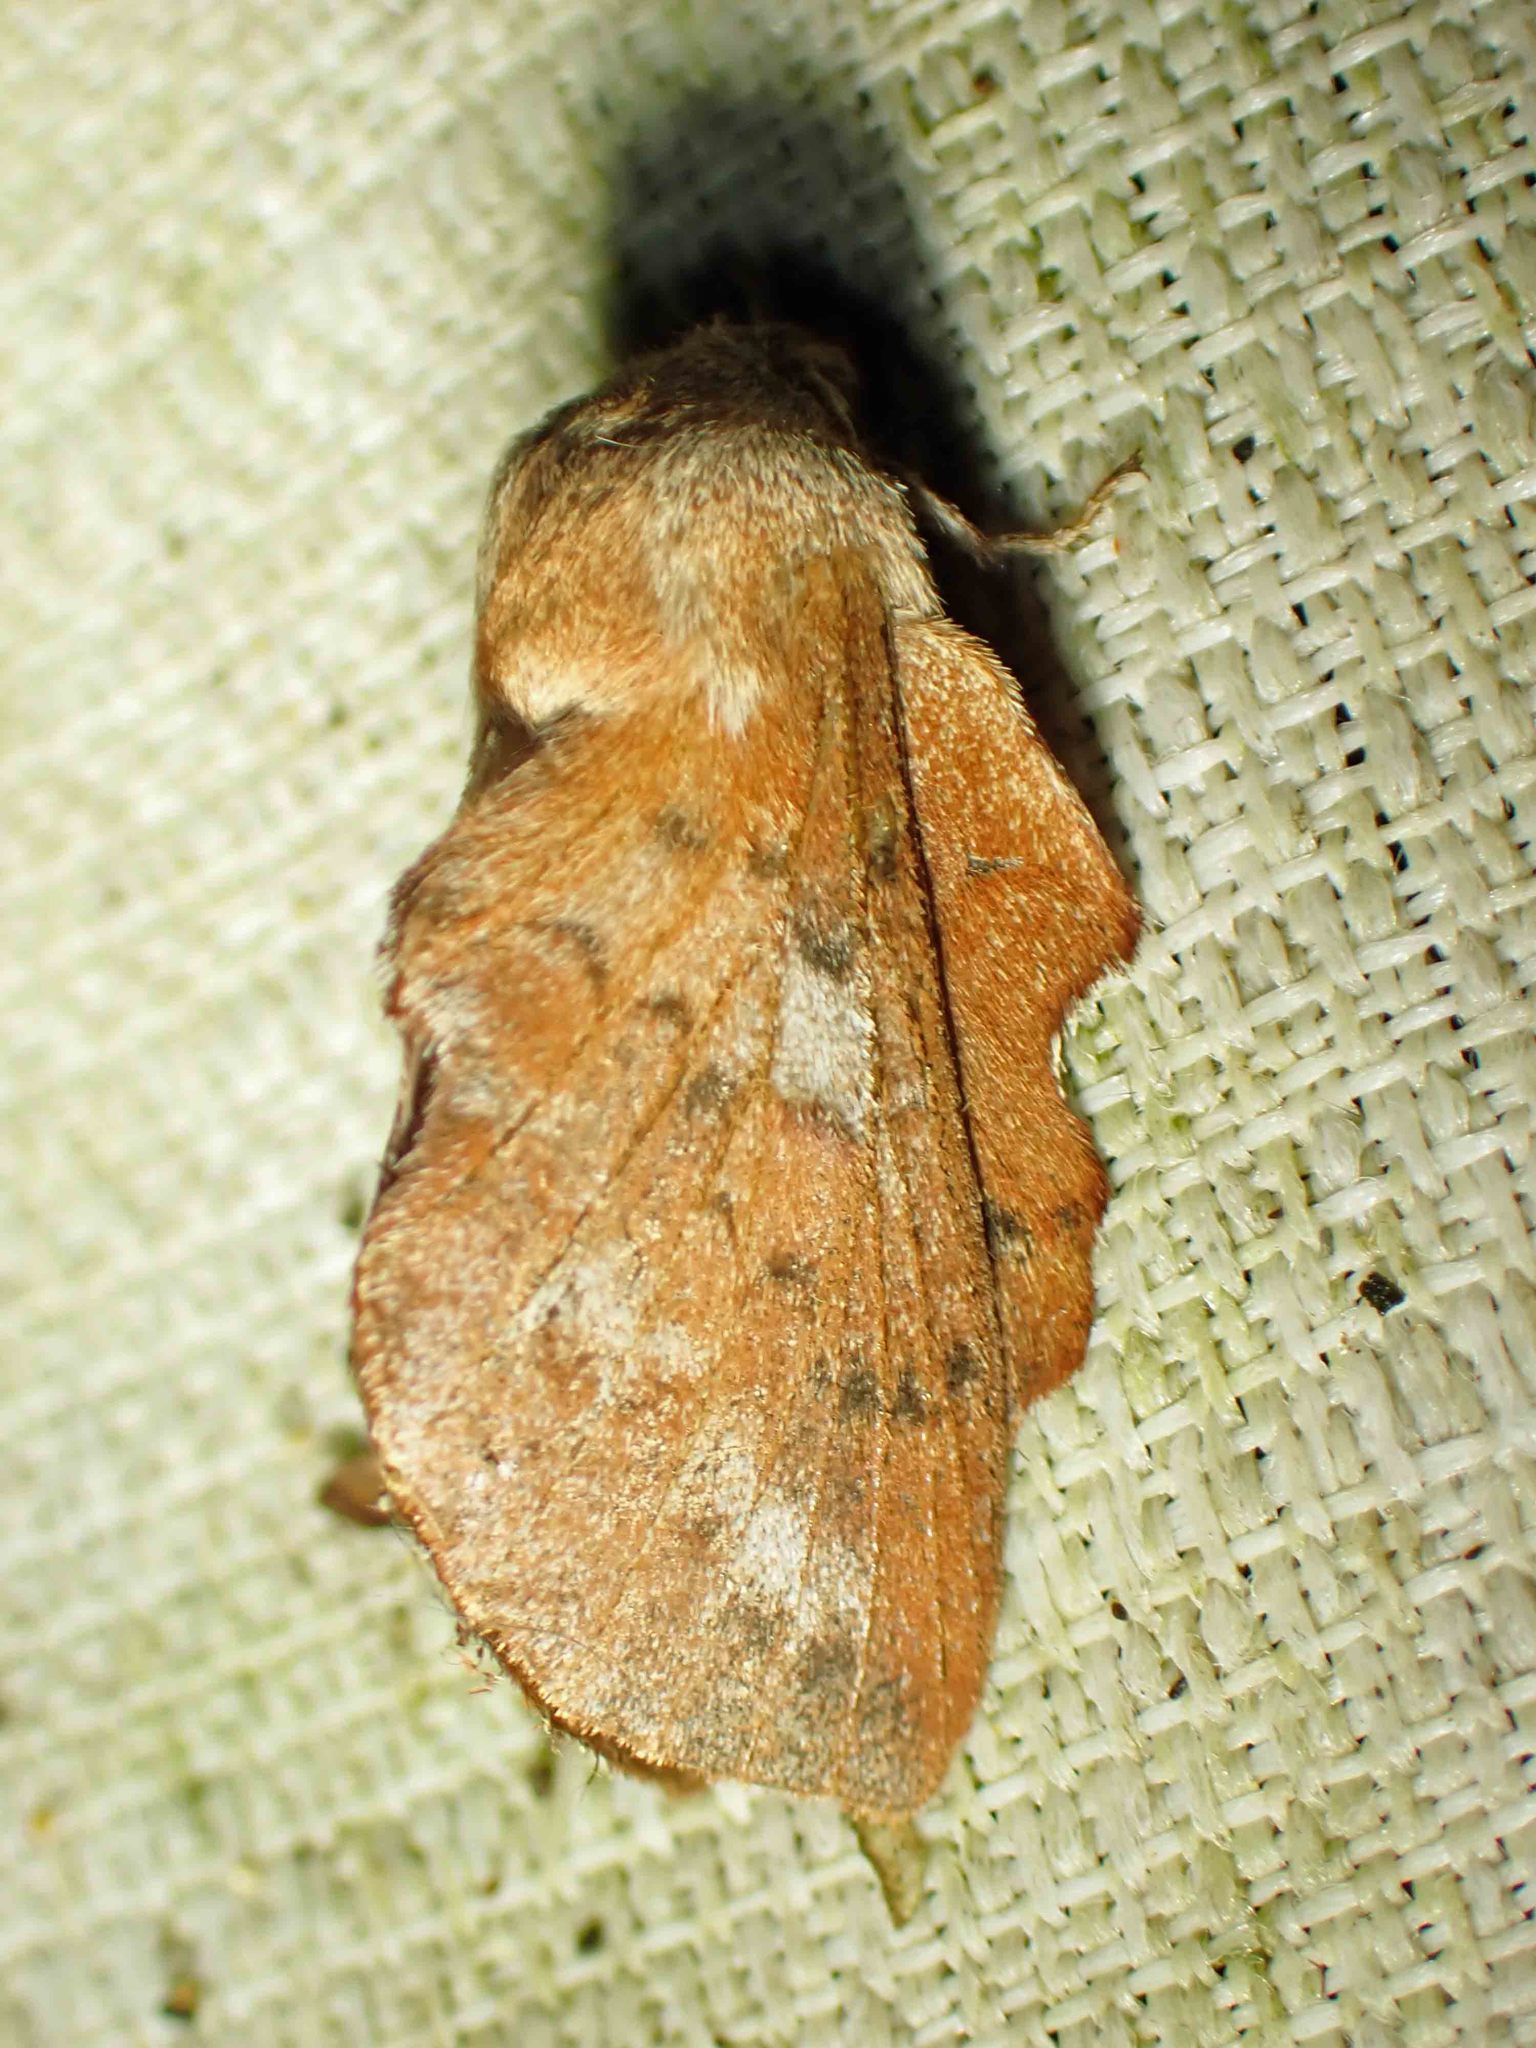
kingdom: Animalia
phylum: Arthropoda
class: Insecta
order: Lepidoptera
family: Lasiocampidae
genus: Phyllodesma
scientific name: Phyllodesma americana
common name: American lappet moth
